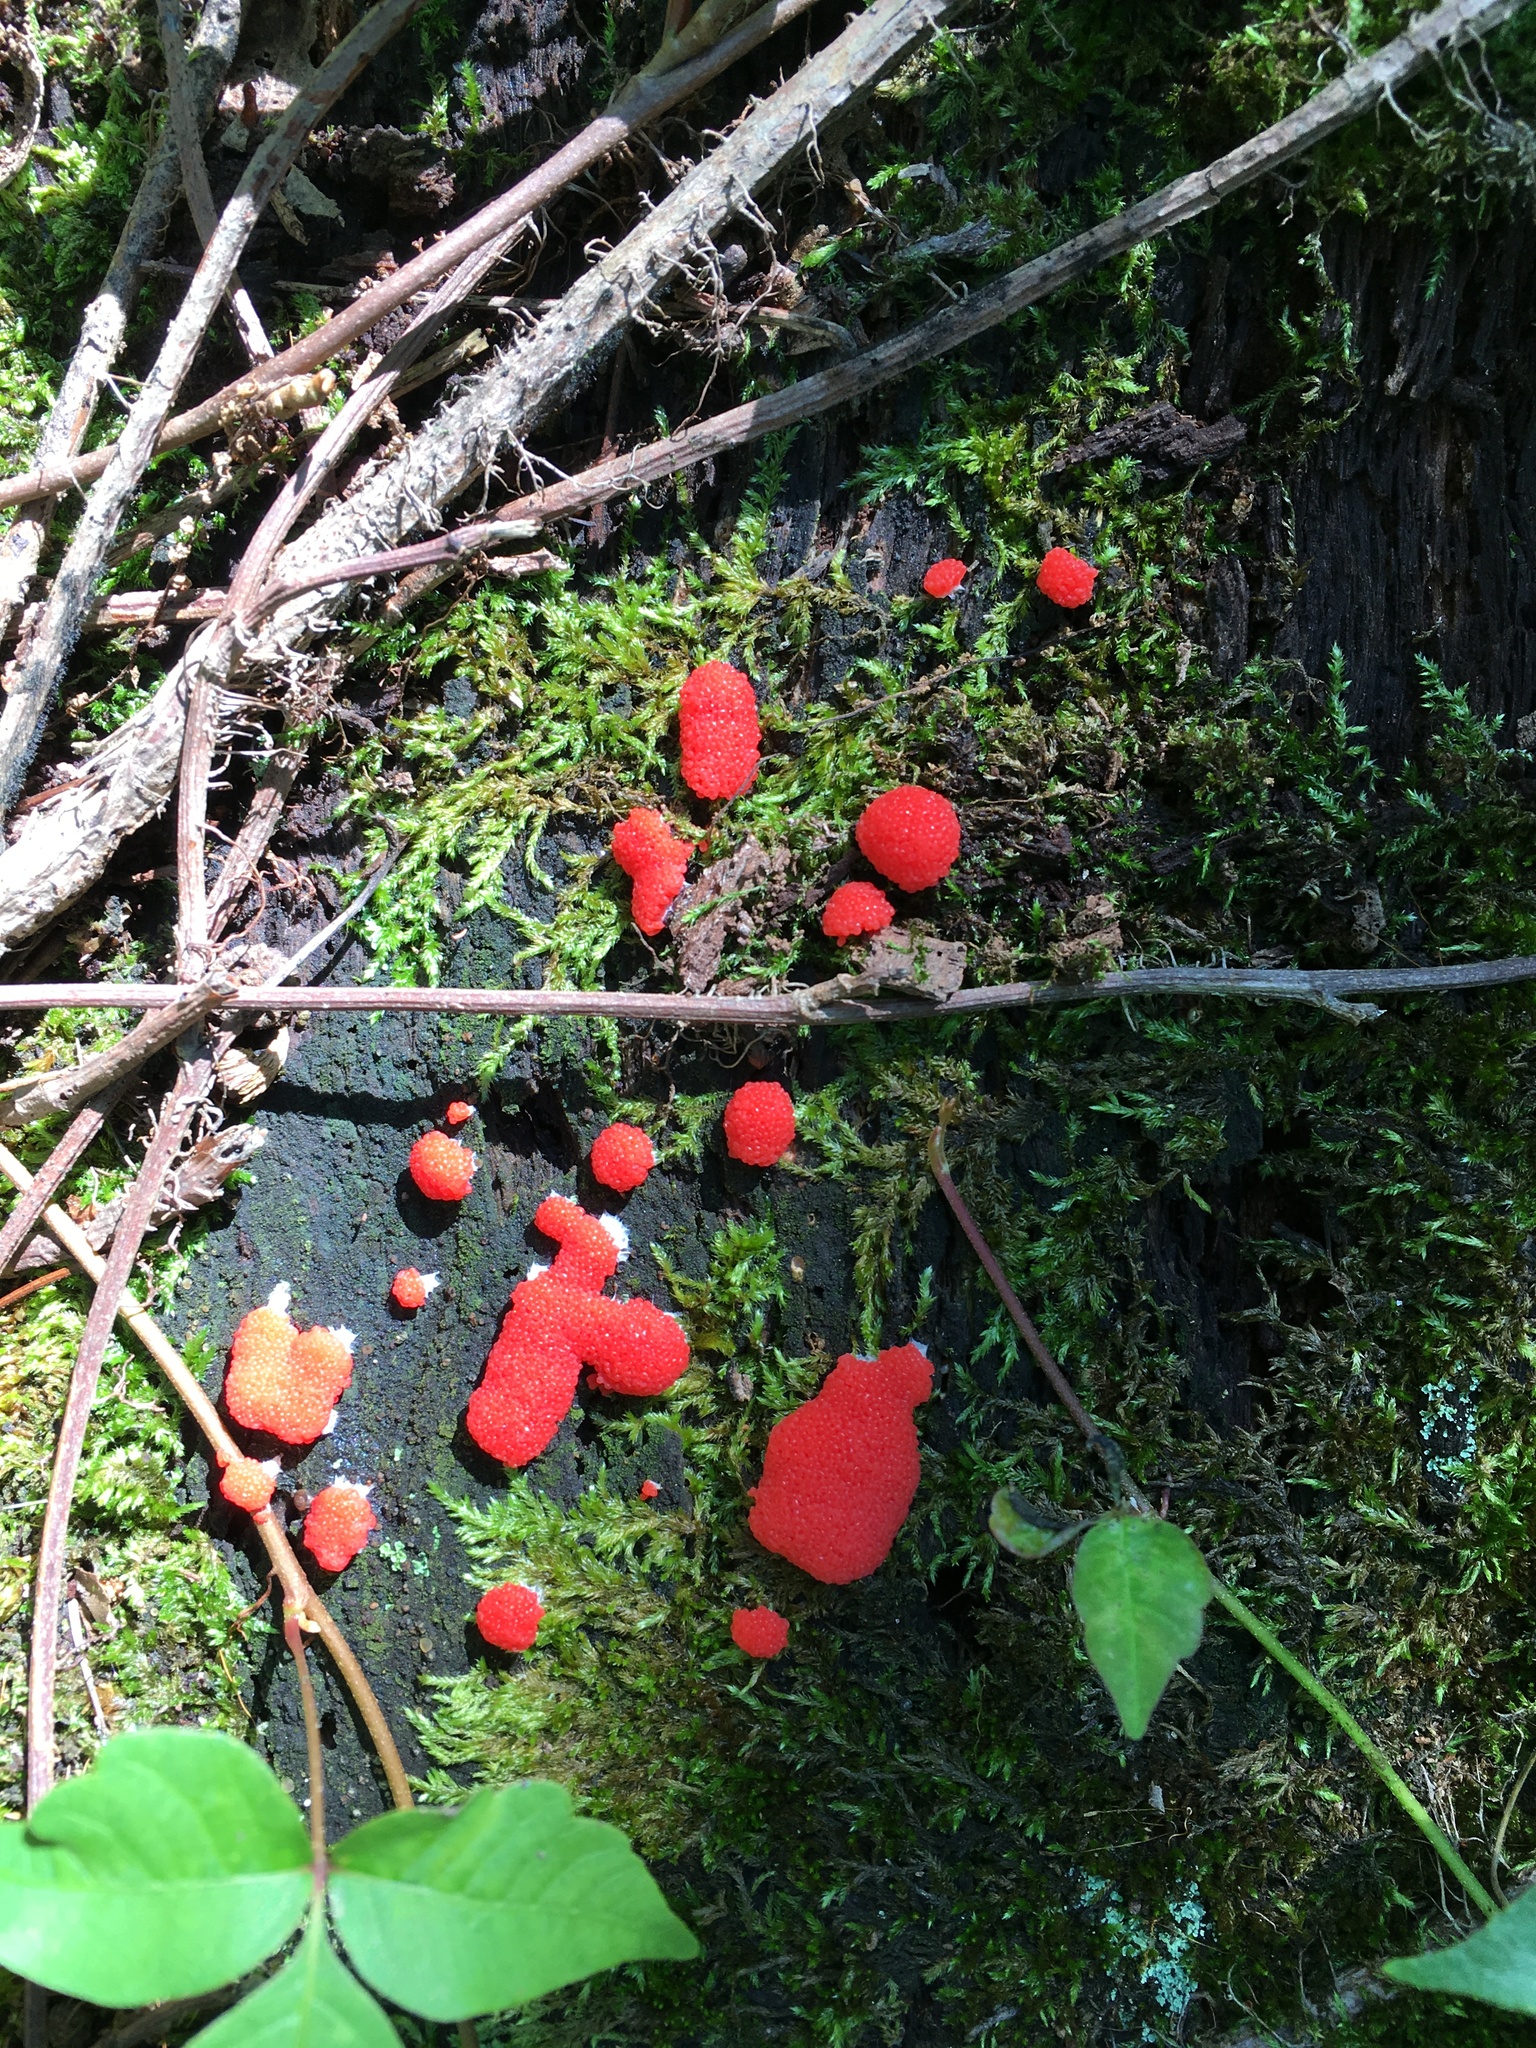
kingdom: Protozoa
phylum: Mycetozoa
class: Myxomycetes
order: Cribrariales
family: Tubiferaceae
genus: Tubifera
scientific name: Tubifera ferruginosa
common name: Red raspberry slime mold
